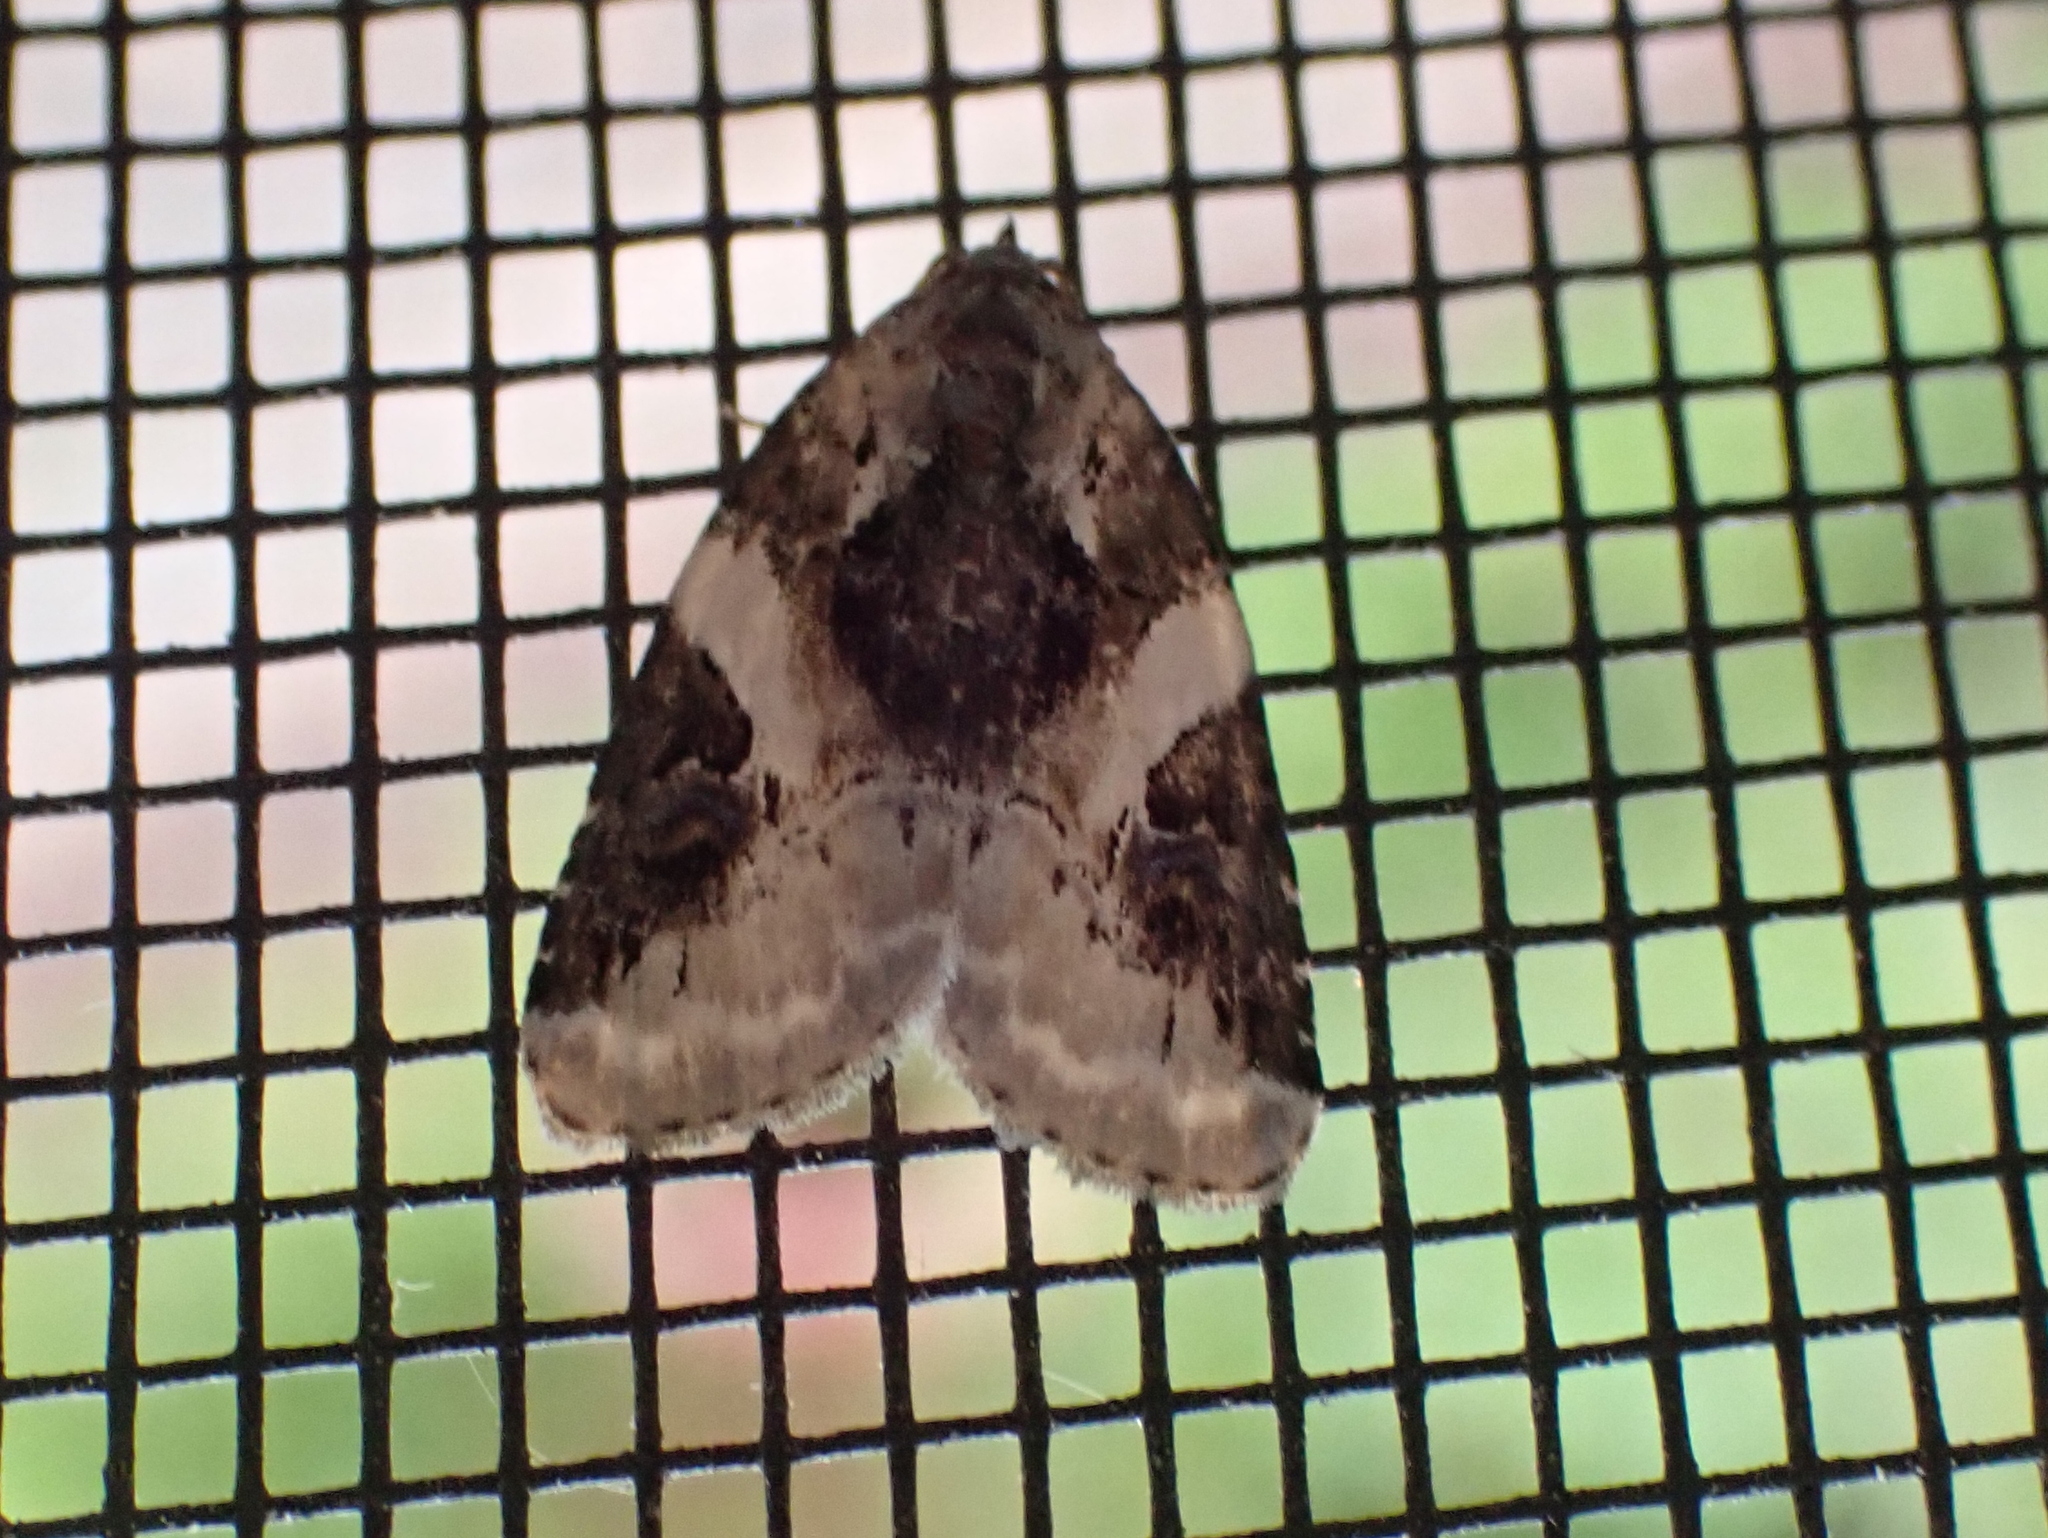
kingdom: Animalia
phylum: Arthropoda
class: Insecta
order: Lepidoptera
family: Noctuidae
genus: Pseudeustrotia
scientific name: Pseudeustrotia carneola
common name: Pink-barred lithacodia moth
